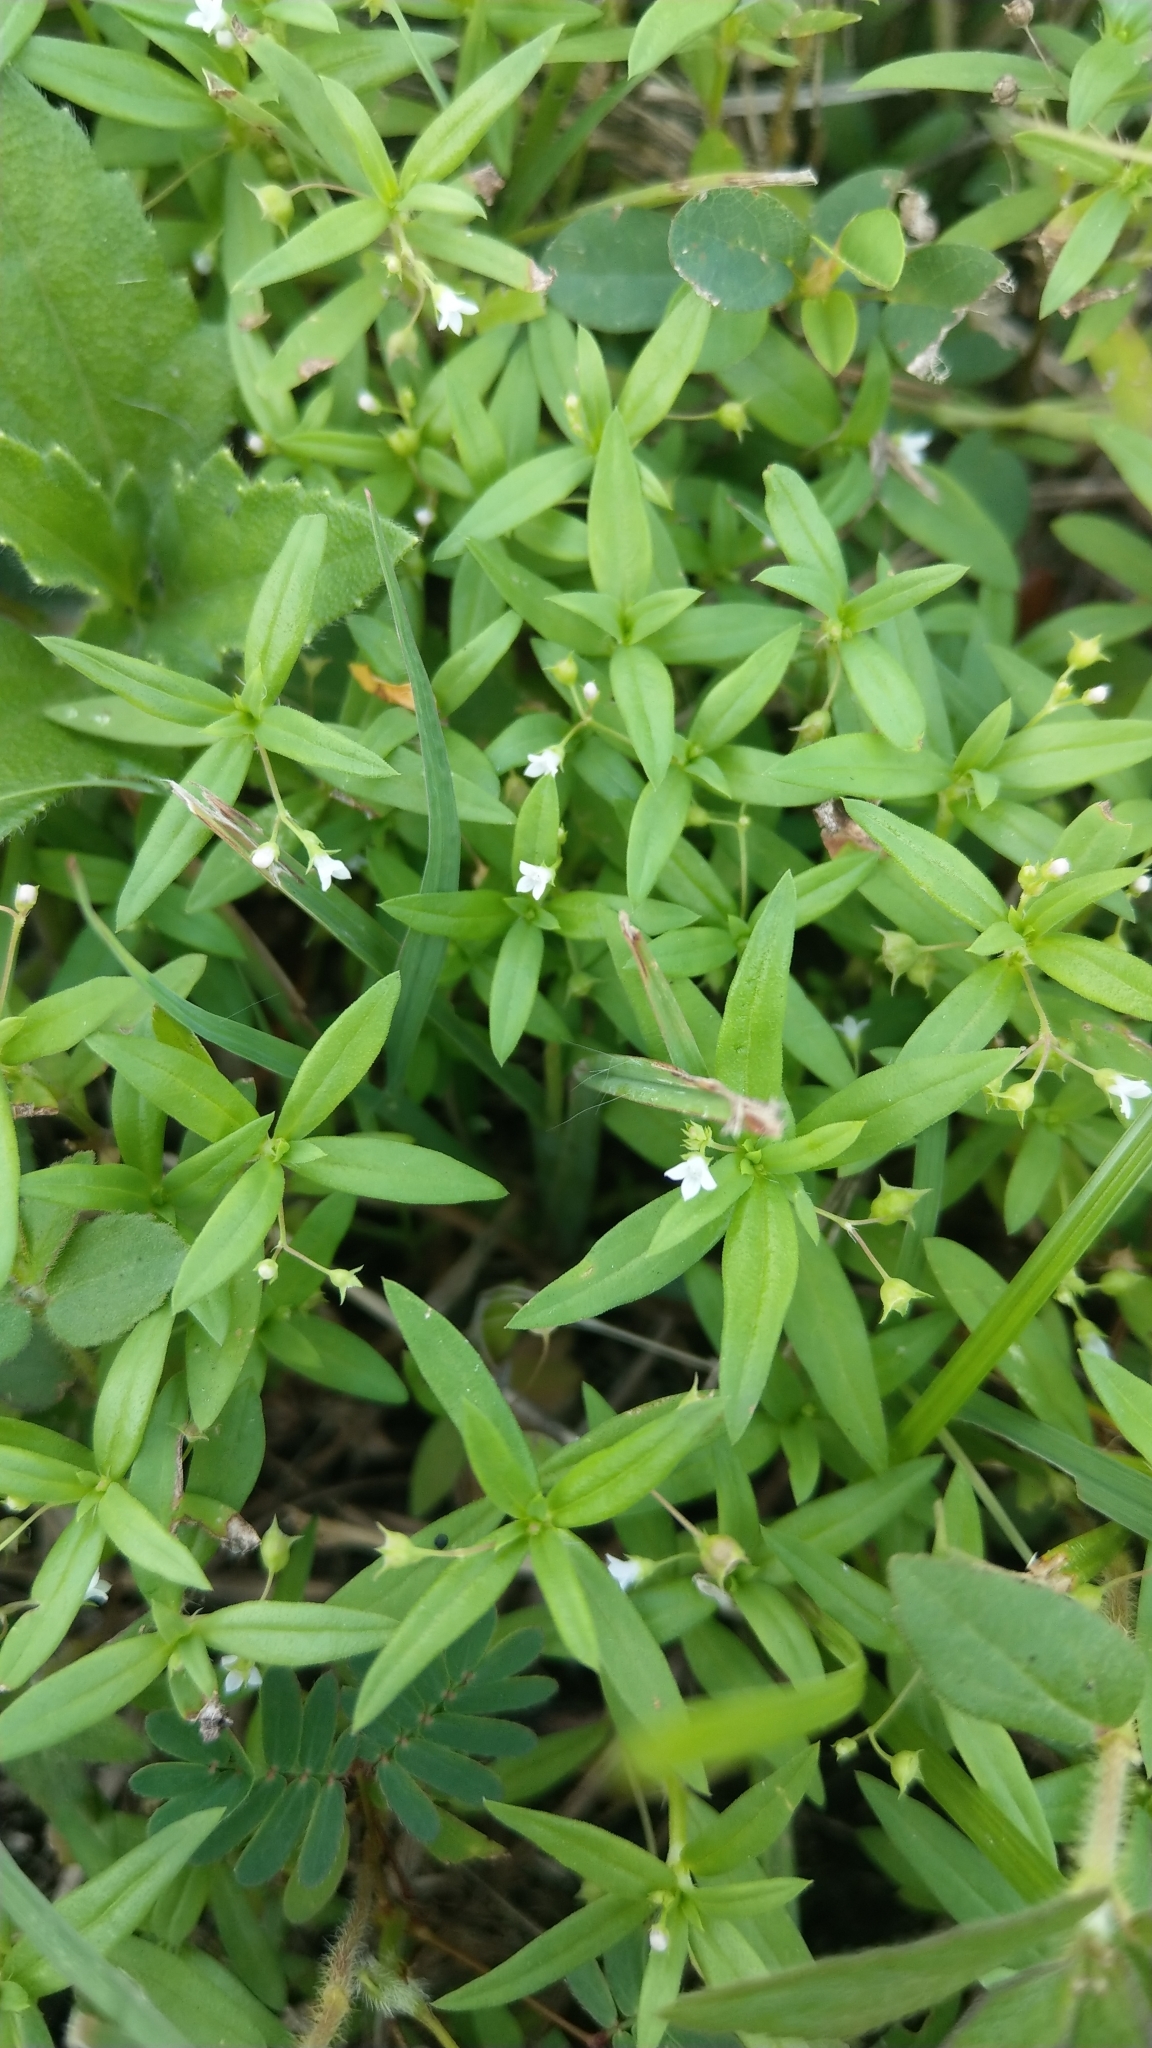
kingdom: Plantae
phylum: Tracheophyta
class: Magnoliopsida
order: Gentianales
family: Rubiaceae
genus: Oldenlandia
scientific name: Oldenlandia corymbosa
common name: Flat-top mille graines
